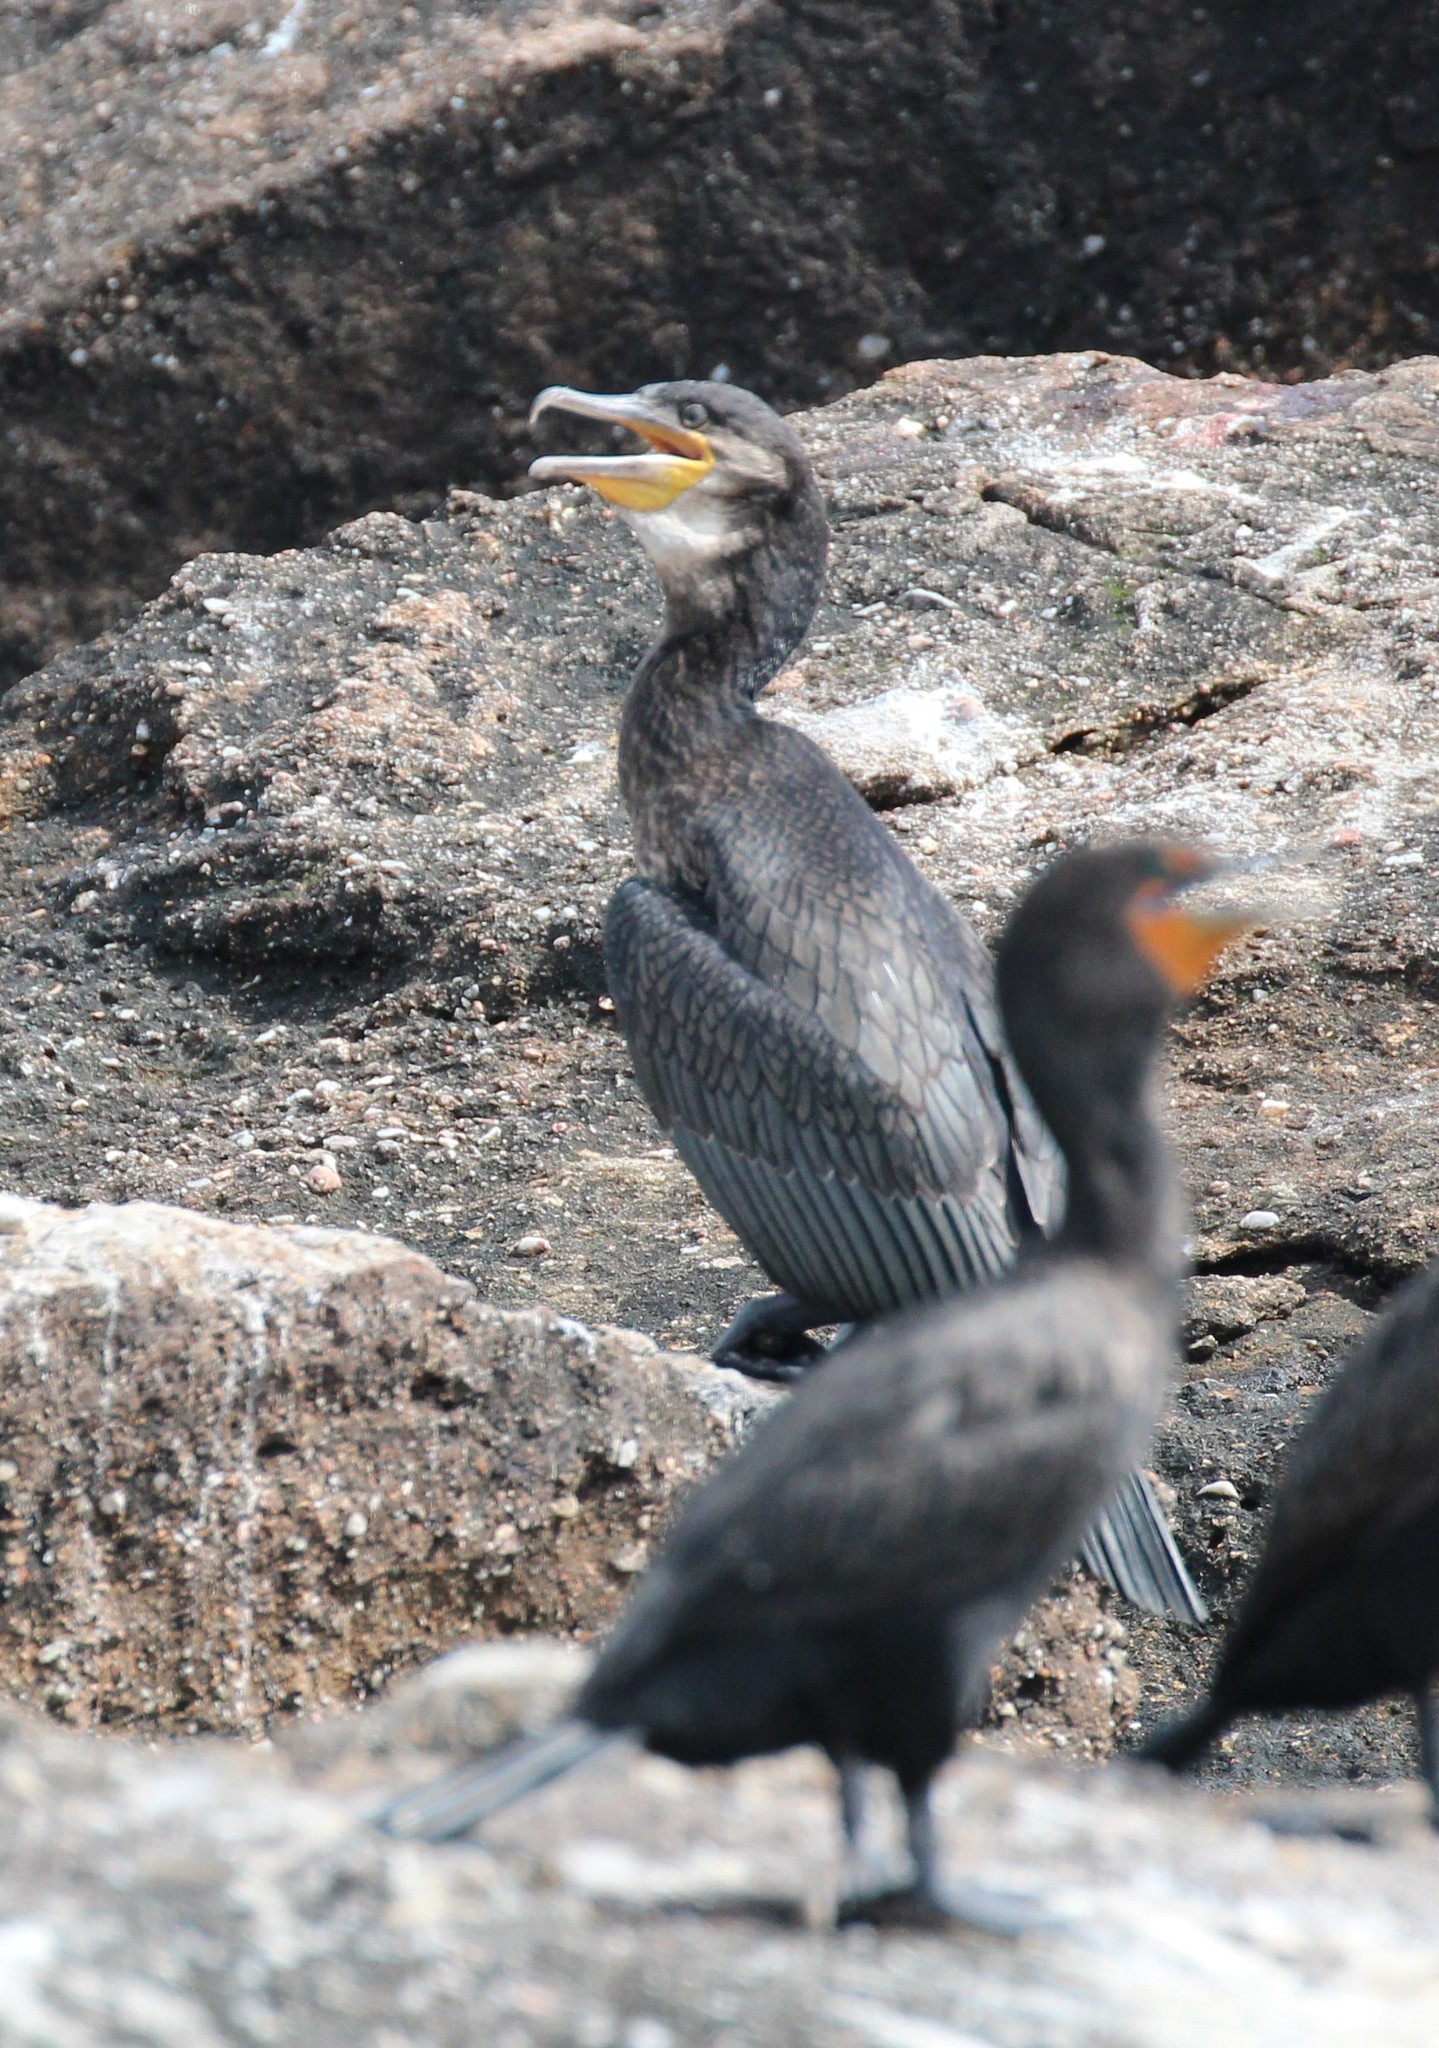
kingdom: Animalia
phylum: Chordata
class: Aves
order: Suliformes
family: Phalacrocoracidae
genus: Phalacrocorax
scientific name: Phalacrocorax carbo
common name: Great cormorant
